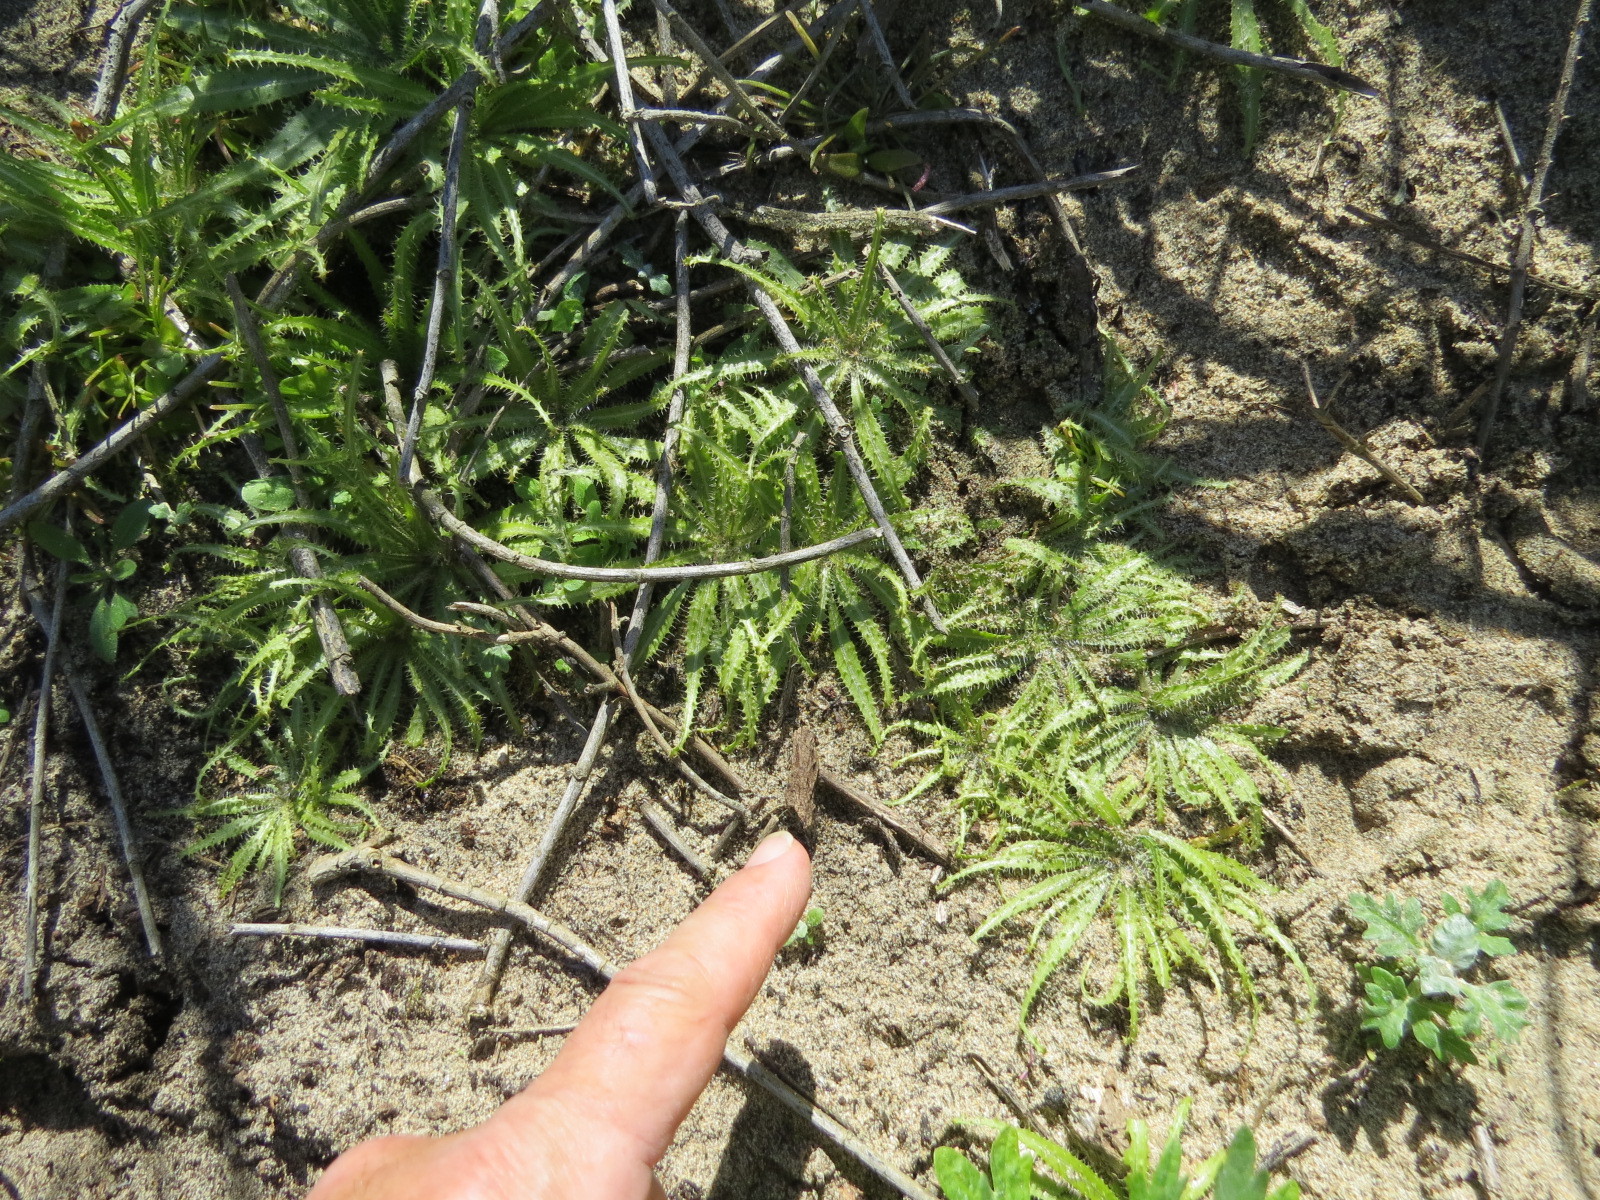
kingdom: Plantae
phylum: Tracheophyta
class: Magnoliopsida
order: Boraginales
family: Boraginaceae
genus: Amsinckia
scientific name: Amsinckia spectabilis
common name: Seaside fiddleneck
